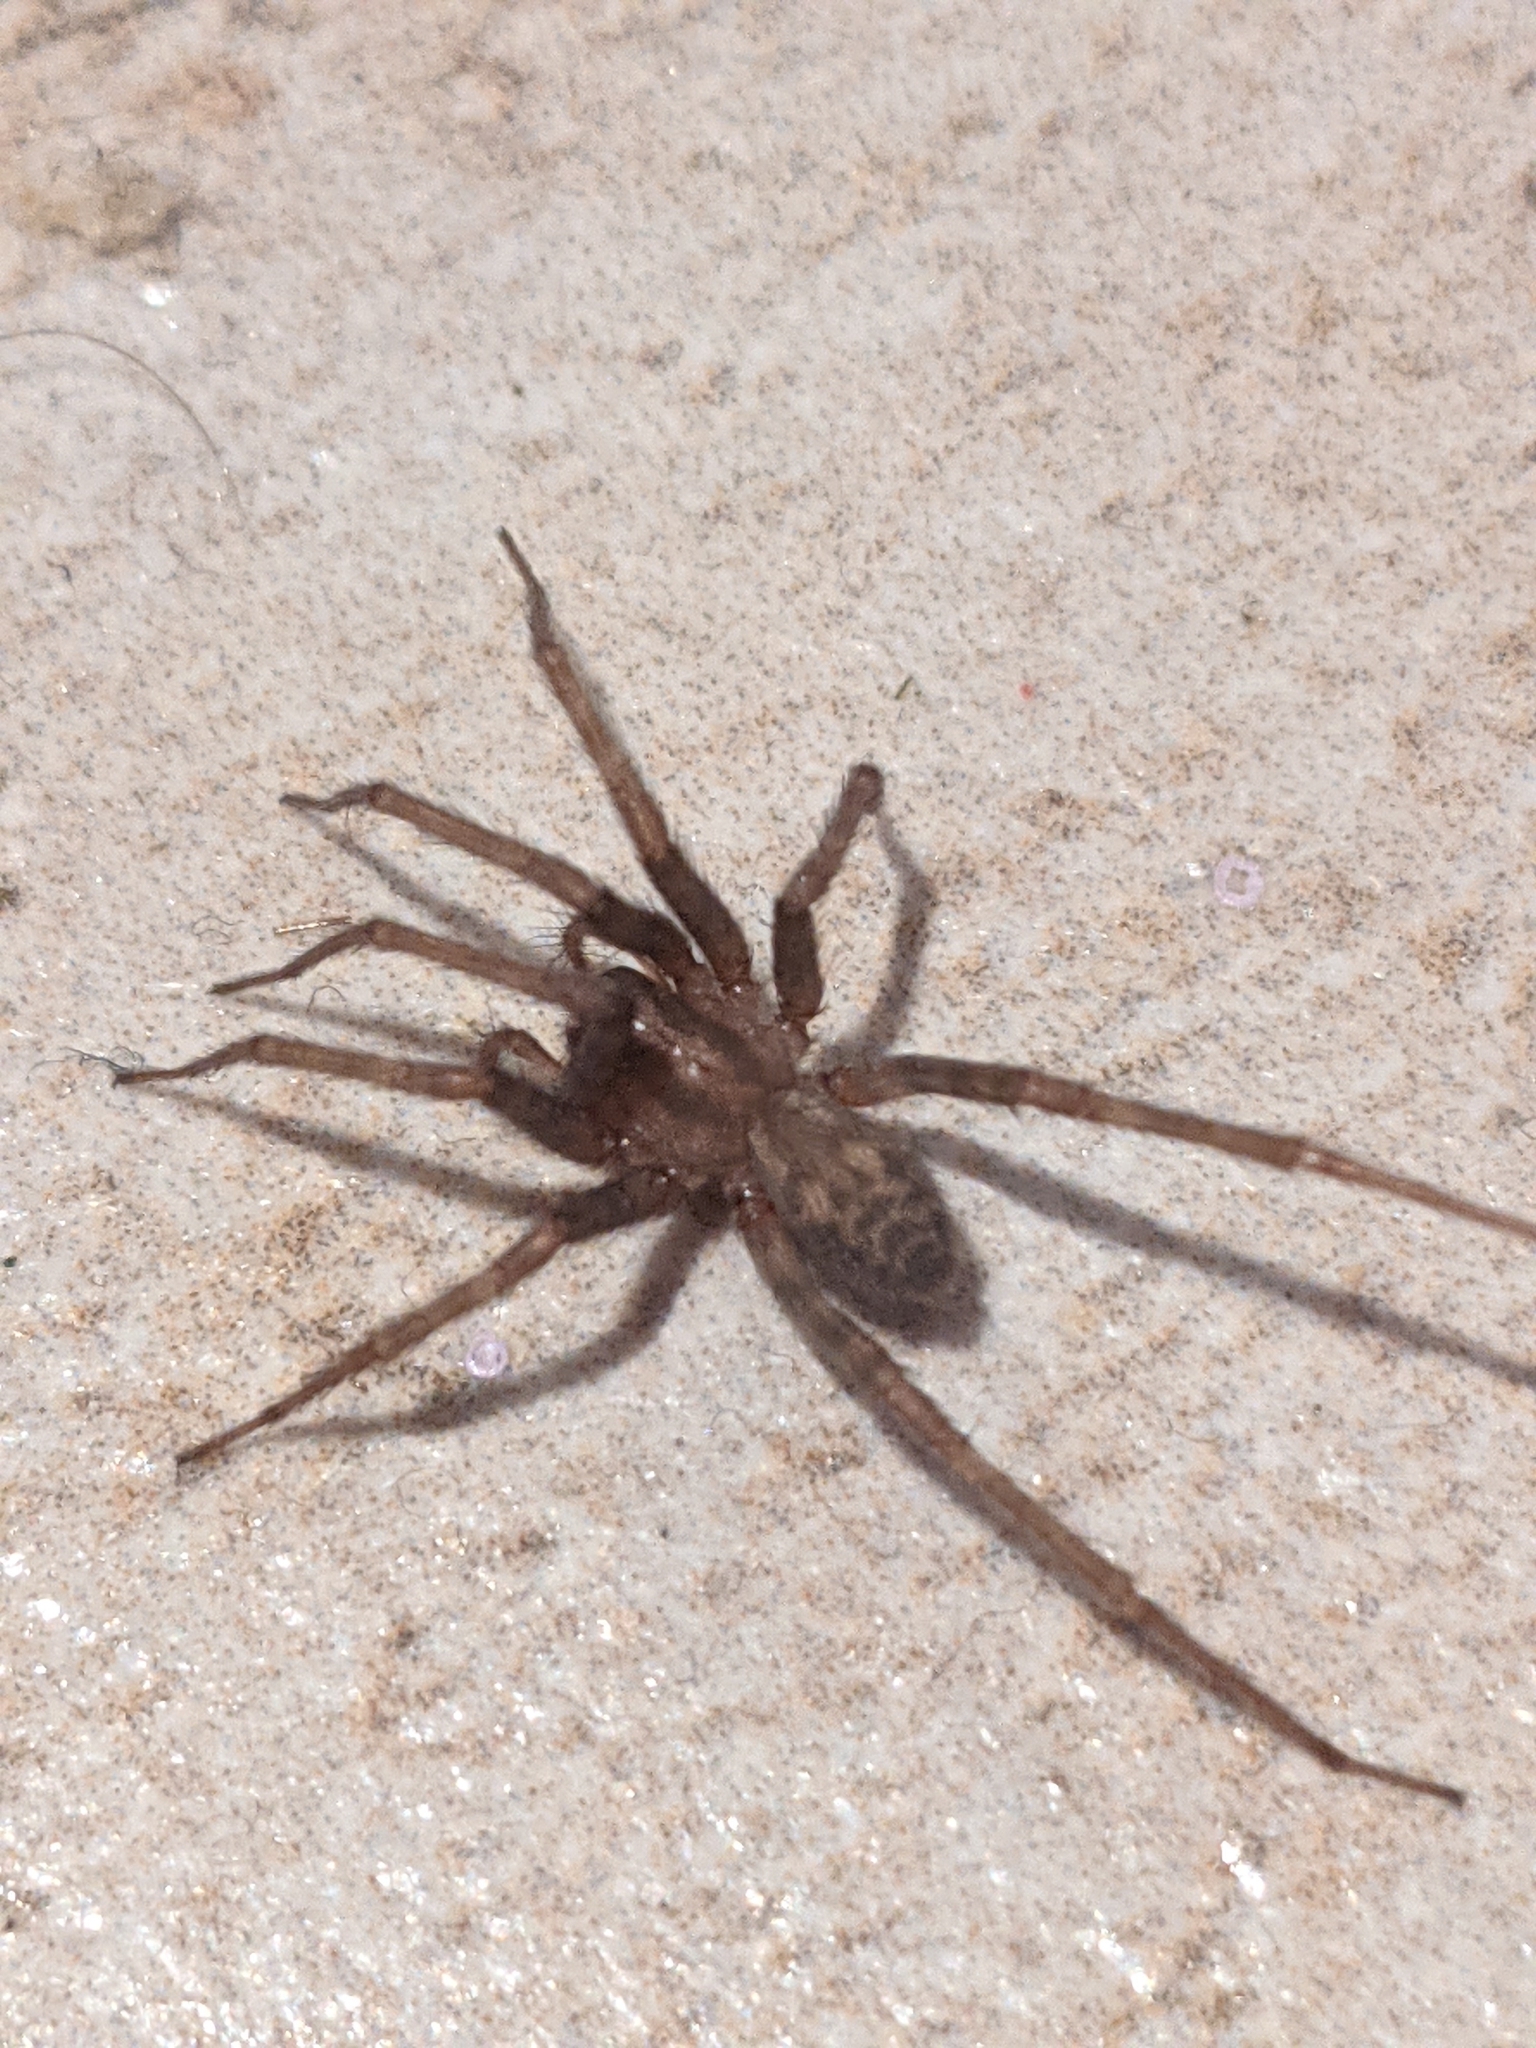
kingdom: Animalia
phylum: Arthropoda
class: Arachnida
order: Araneae
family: Agelenidae
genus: Tegenaria
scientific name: Tegenaria domestica
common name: Barn funnel weaver
